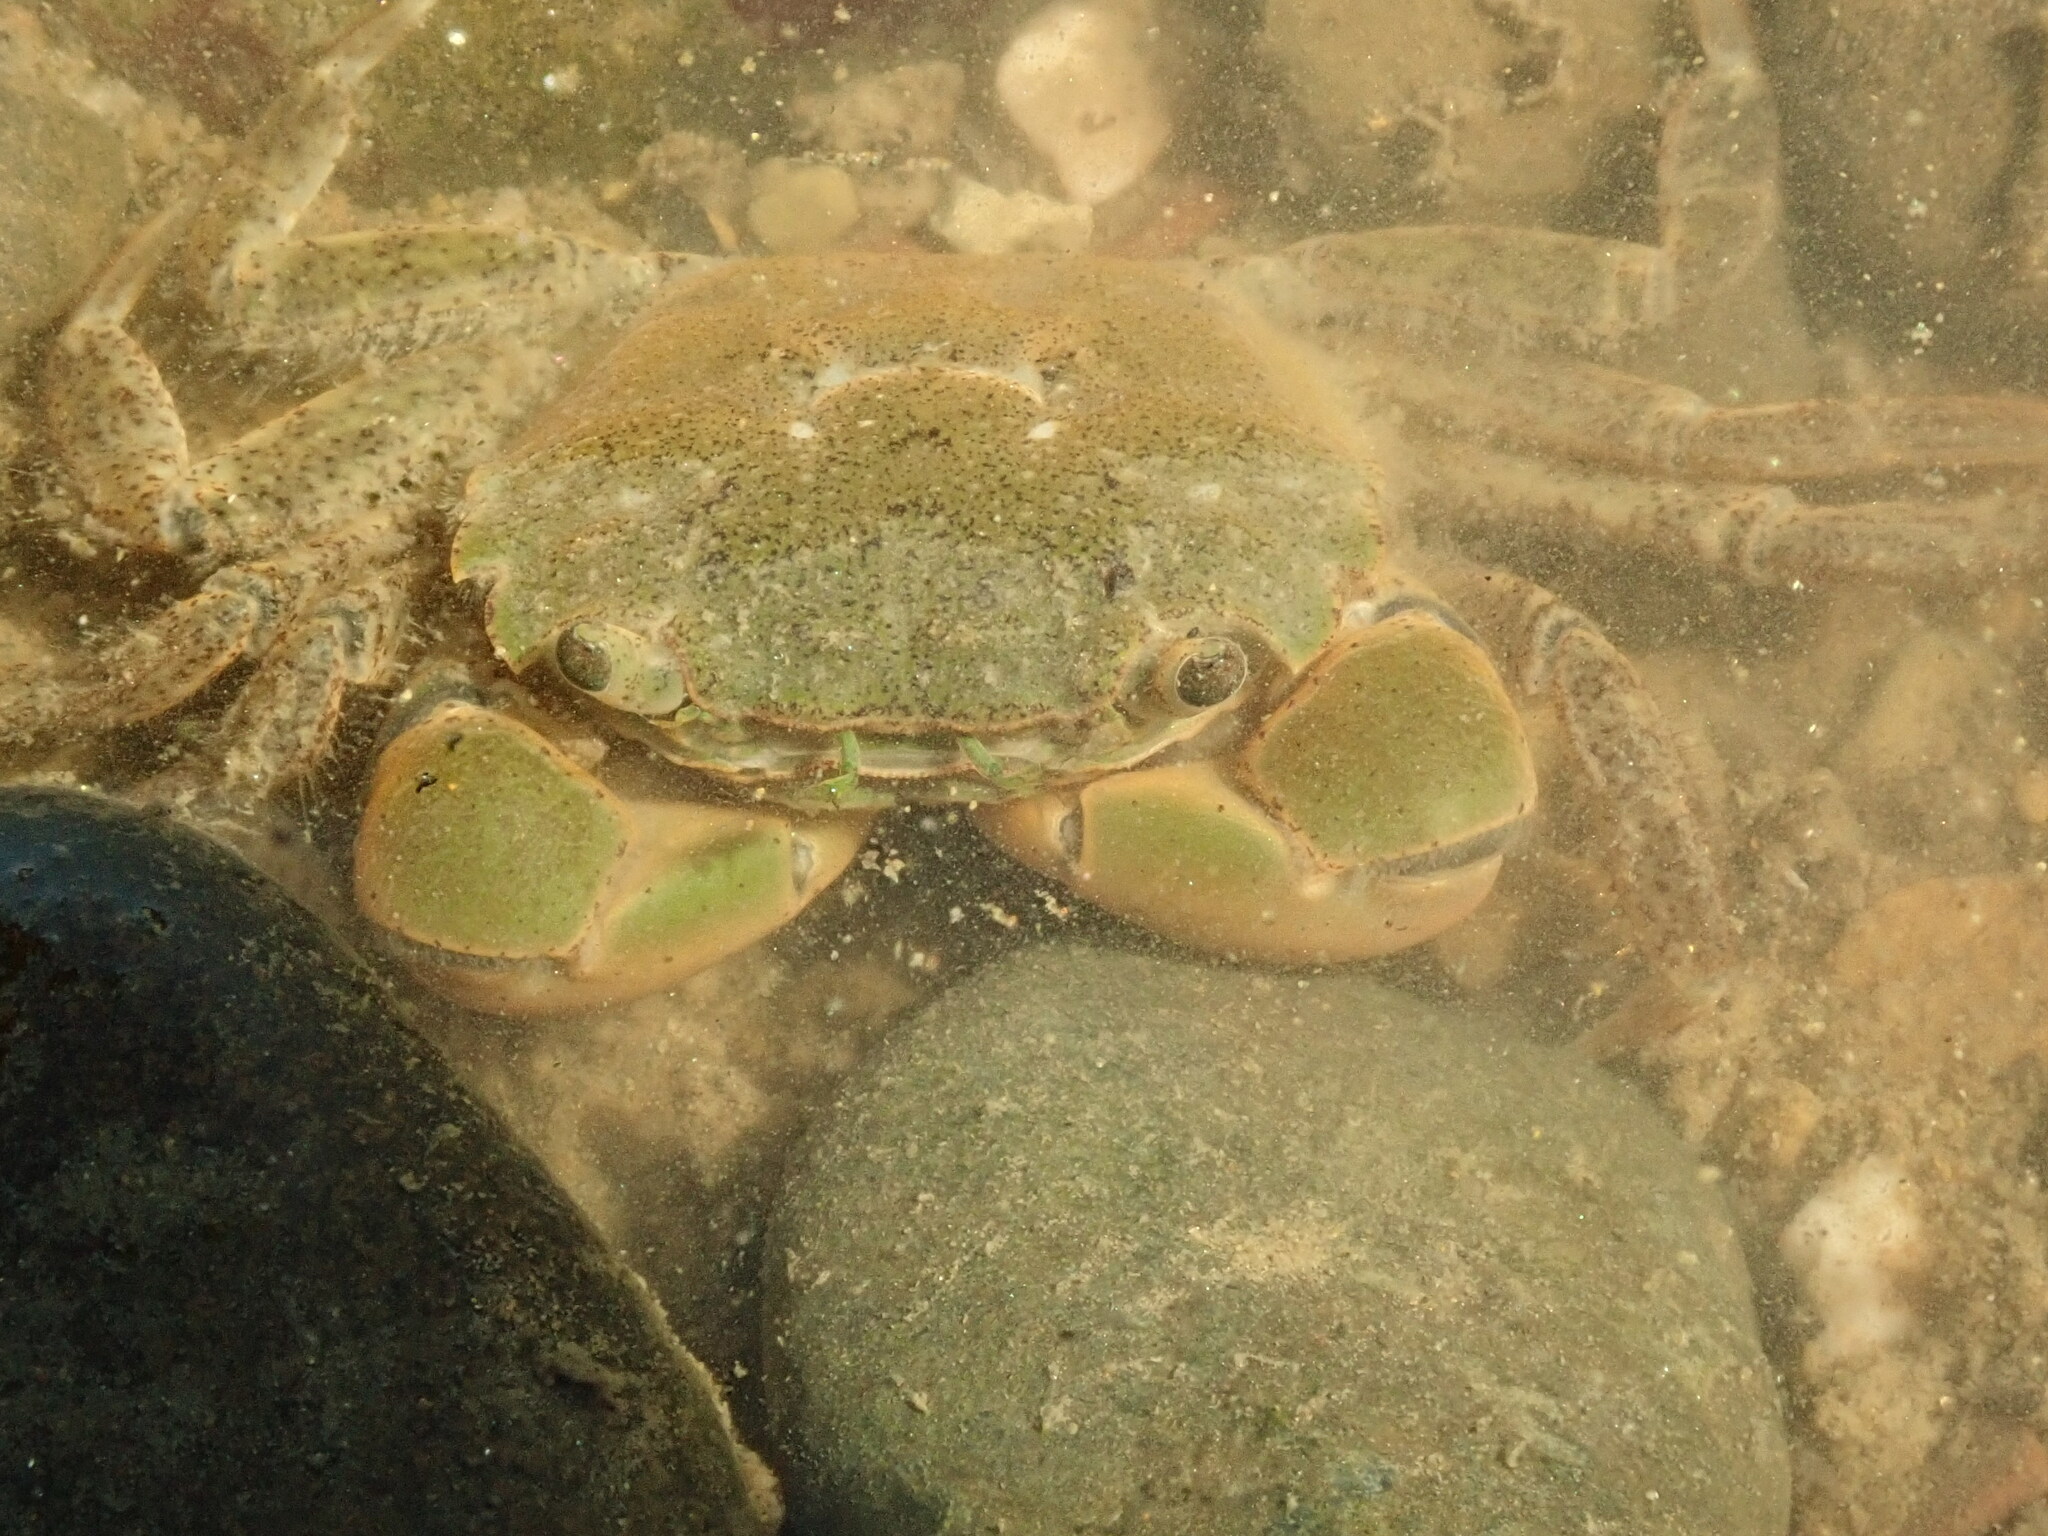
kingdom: Animalia
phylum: Arthropoda
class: Malacostraca
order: Decapoda
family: Varunidae
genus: Hemigrapsus
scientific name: Hemigrapsus oregonensis
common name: Yellow shore crab
